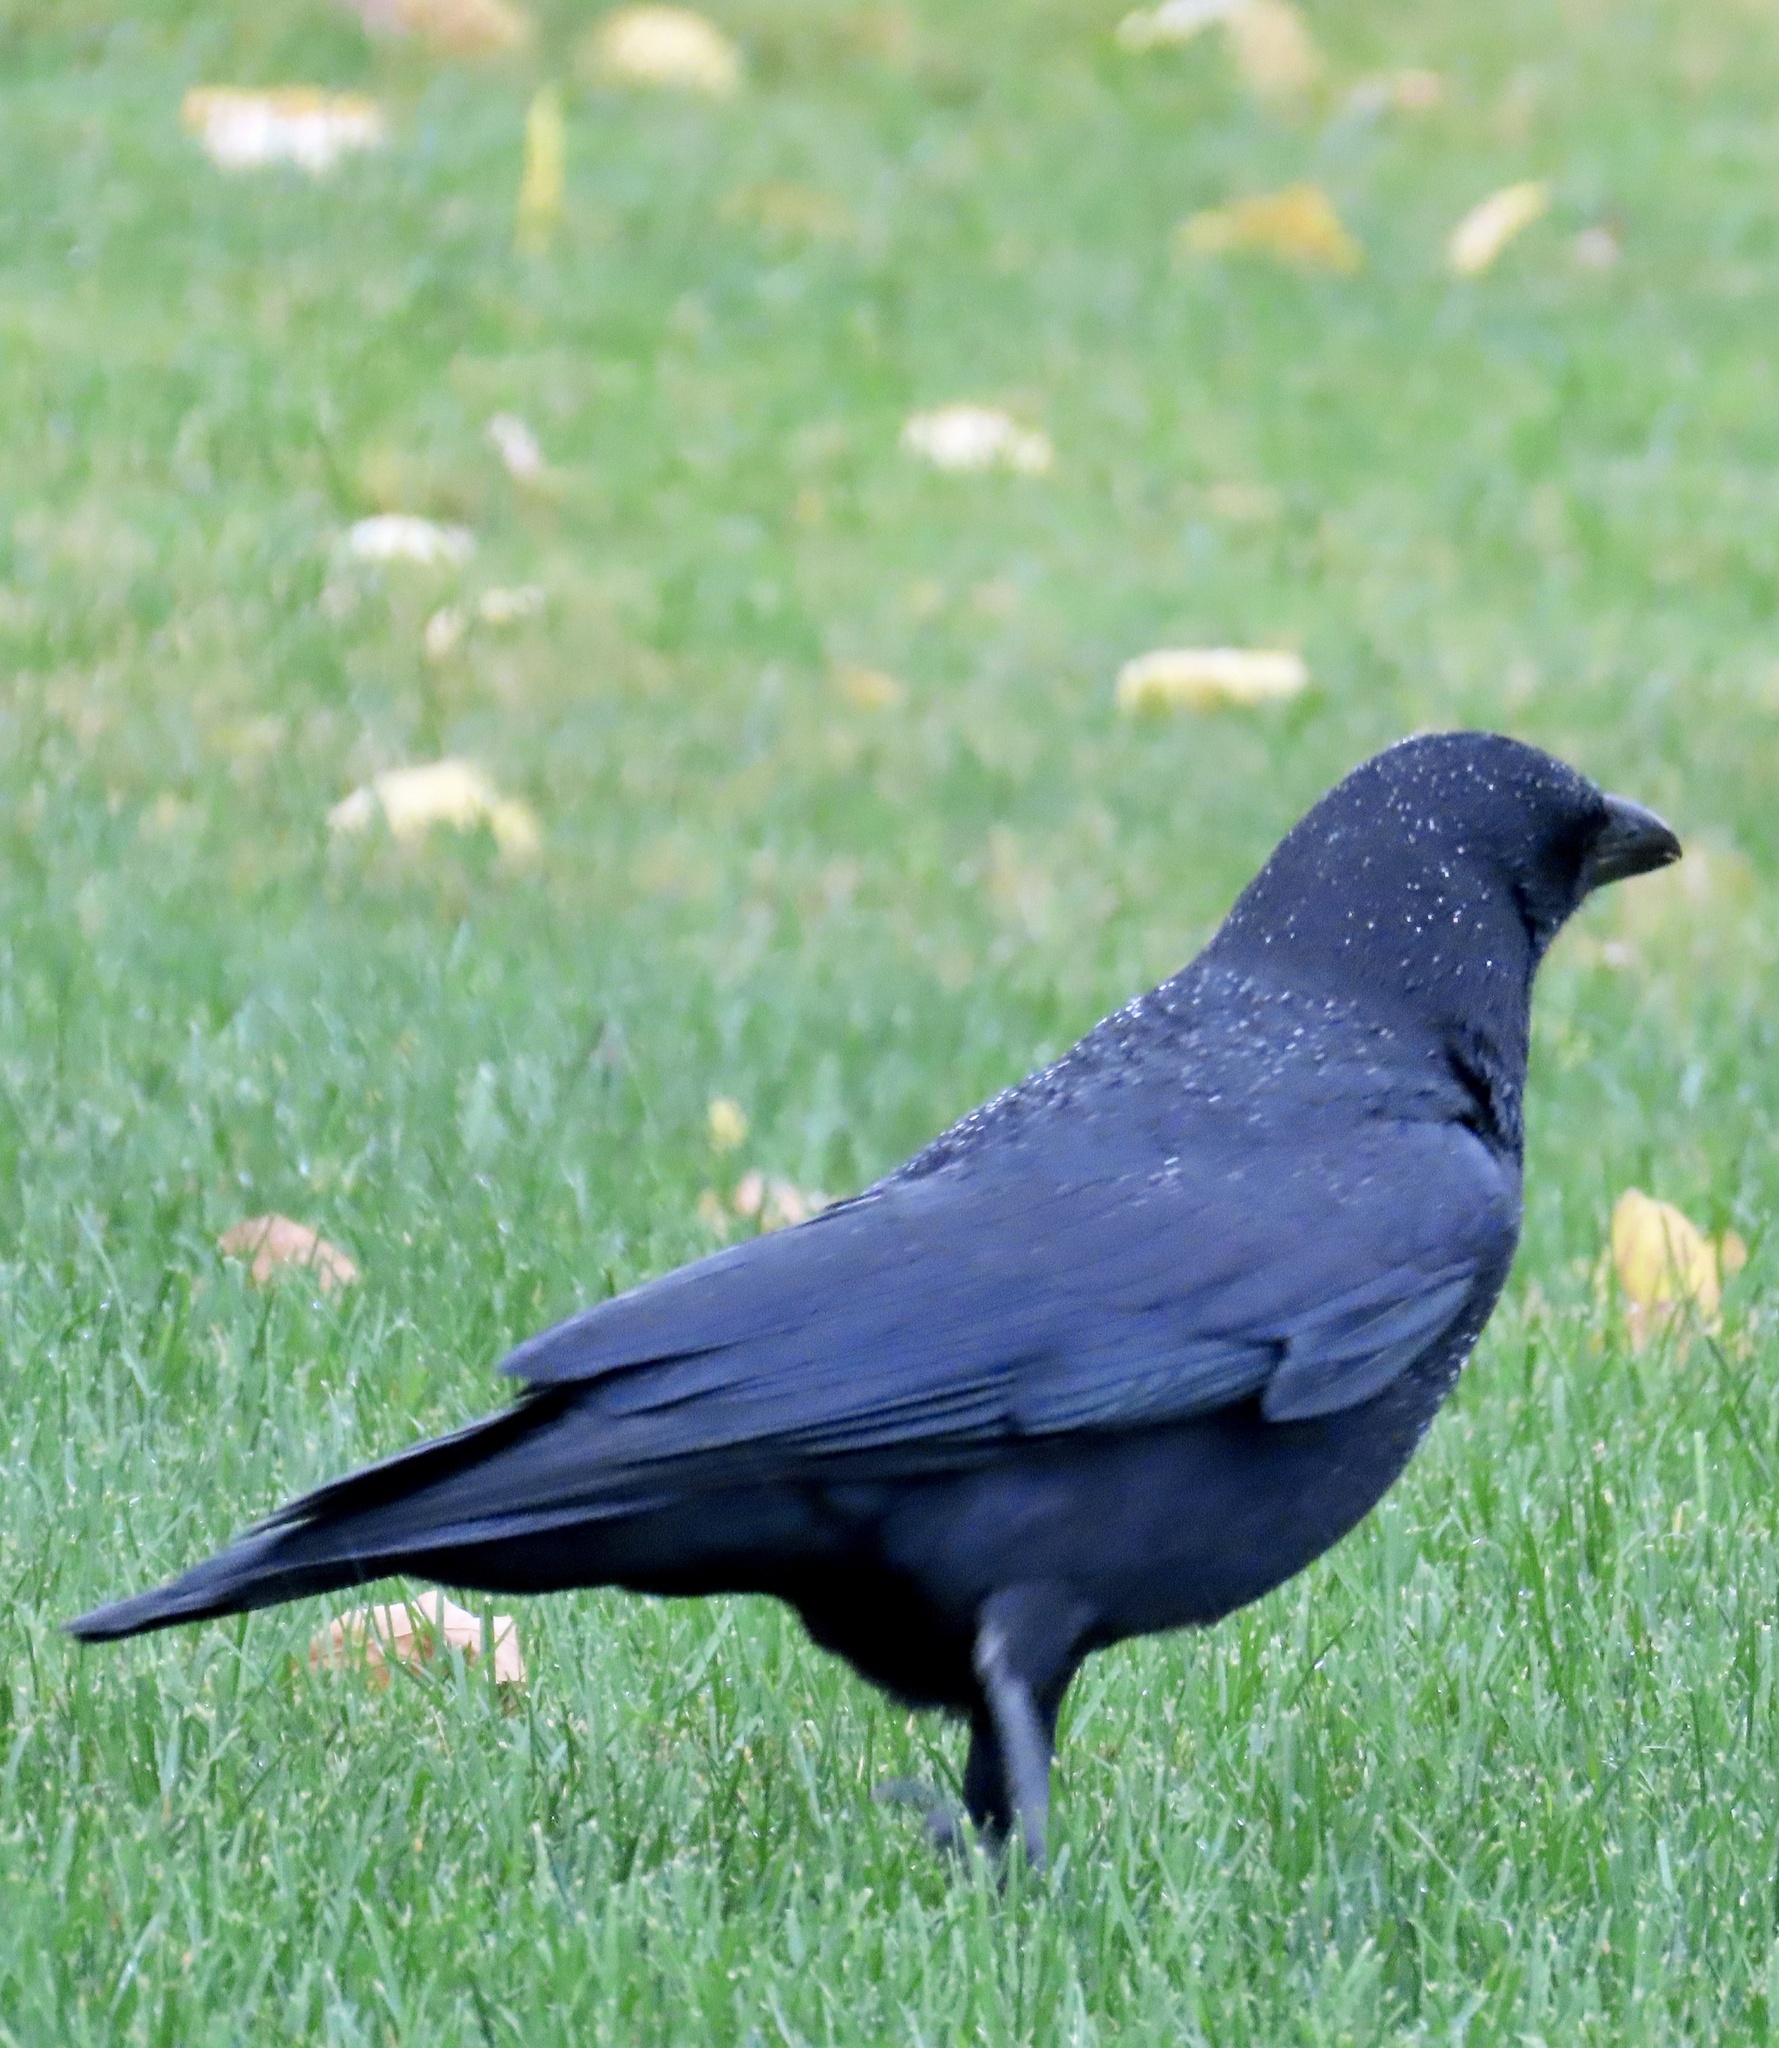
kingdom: Animalia
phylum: Chordata
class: Aves
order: Passeriformes
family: Corvidae
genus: Corvus
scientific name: Corvus brachyrhynchos
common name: American crow
